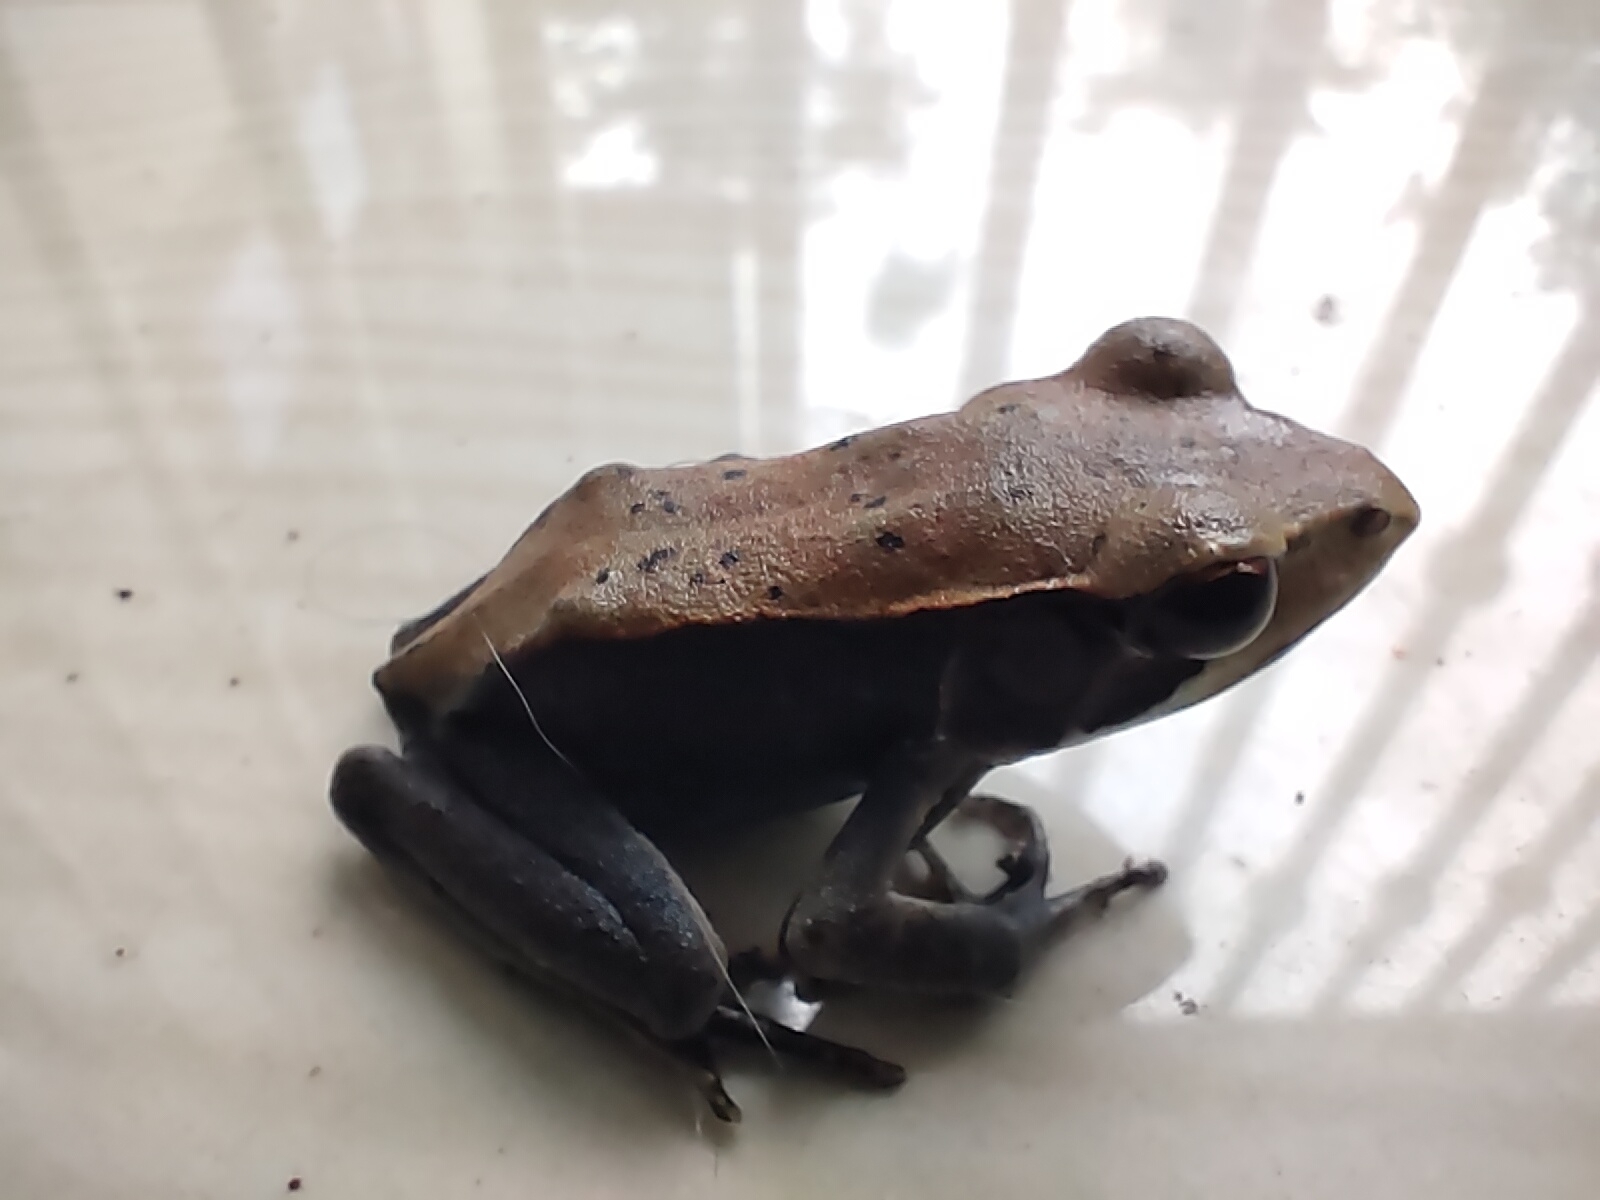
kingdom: Animalia
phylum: Chordata
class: Amphibia
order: Anura
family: Ranidae
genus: Clinotarsus
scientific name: Clinotarsus curtipes
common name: Bicoloured frog
